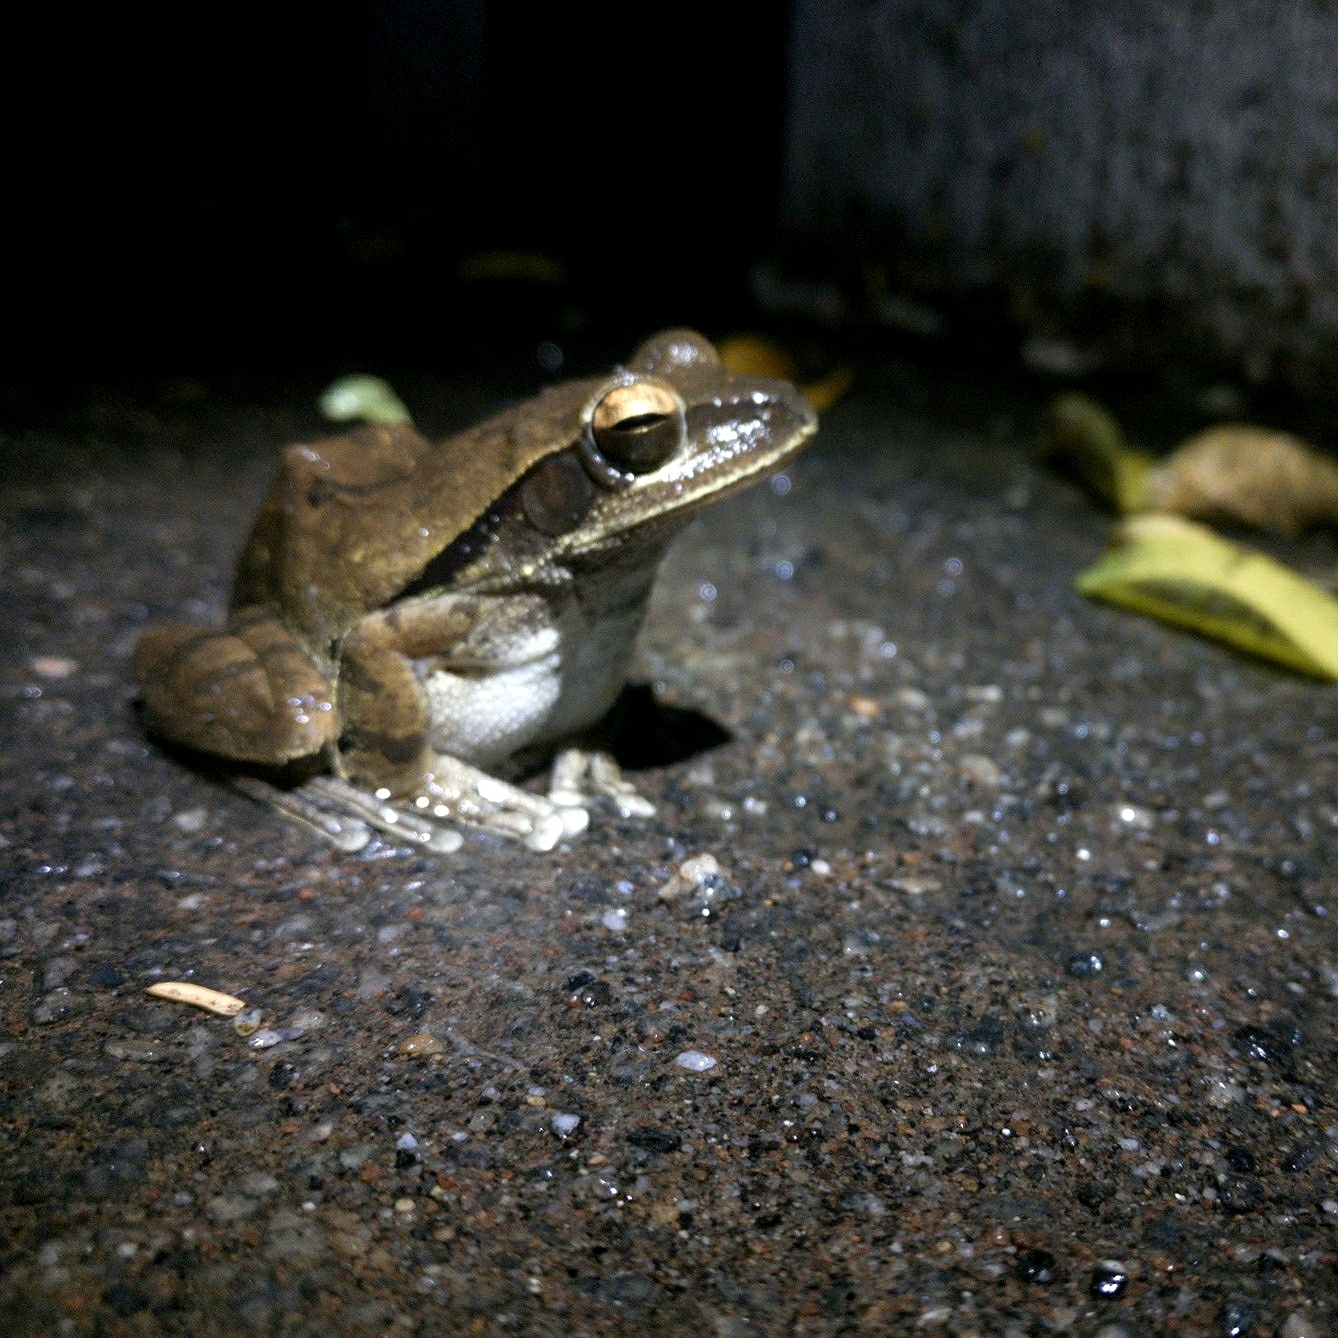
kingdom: Animalia
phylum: Chordata
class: Amphibia
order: Anura
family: Rhacophoridae
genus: Polypedates
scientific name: Polypedates maculatus
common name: Himalayan tree frog
